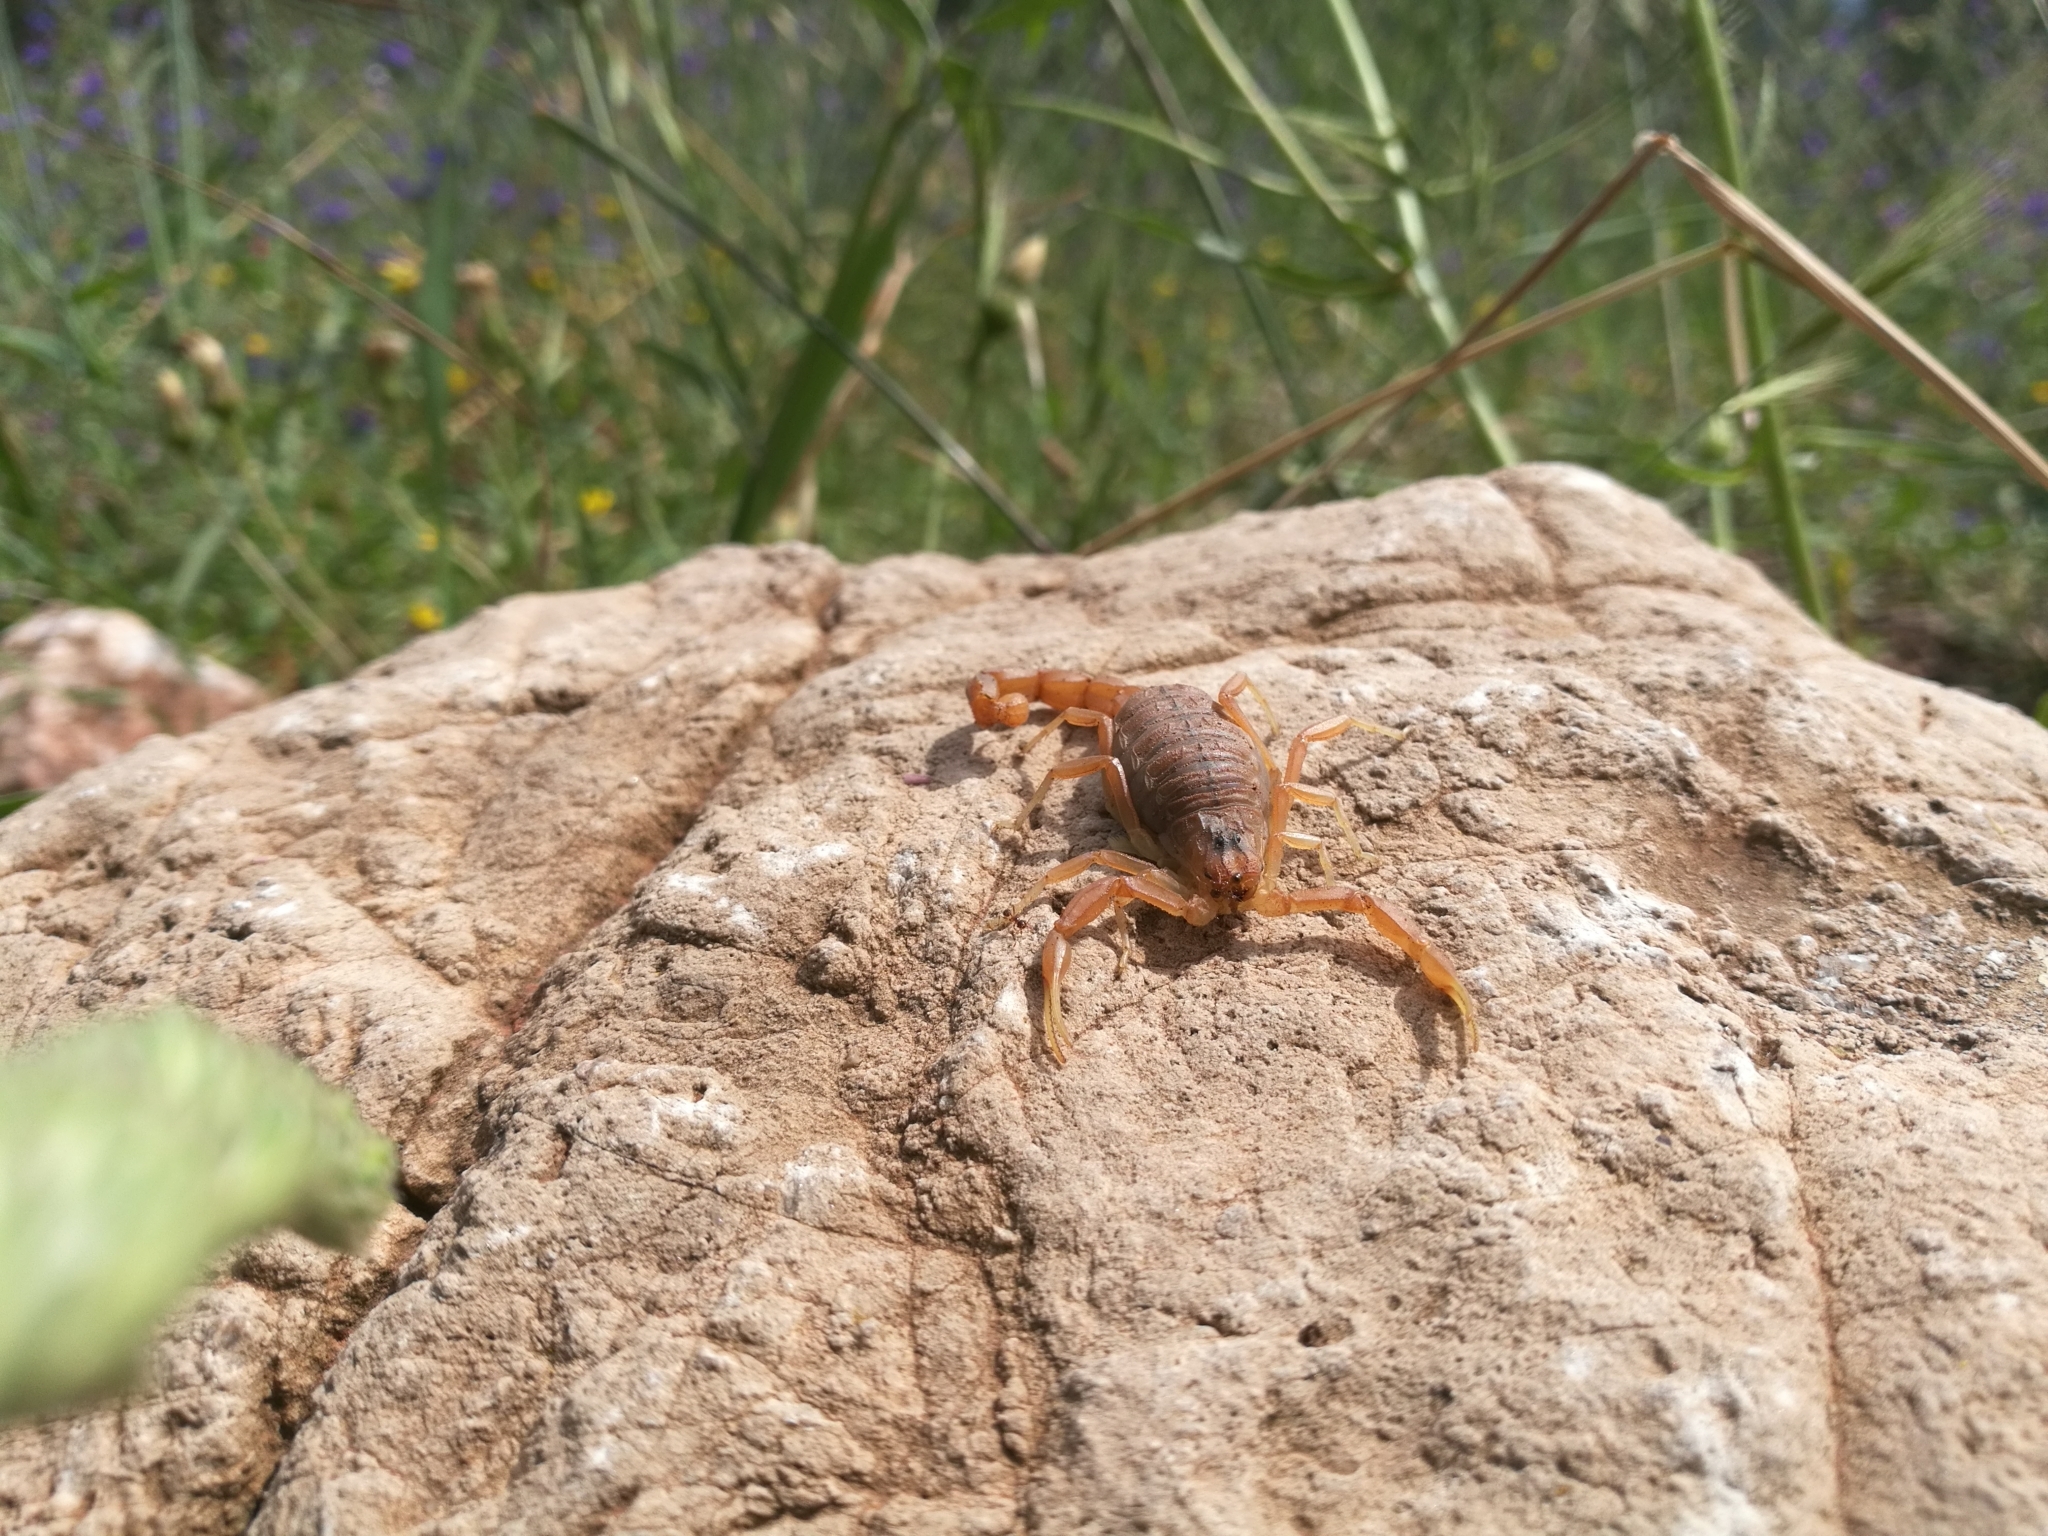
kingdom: Animalia
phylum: Arthropoda
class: Arachnida
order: Scorpiones
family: Buthidae
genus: Buthus
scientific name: Buthus occitanus
